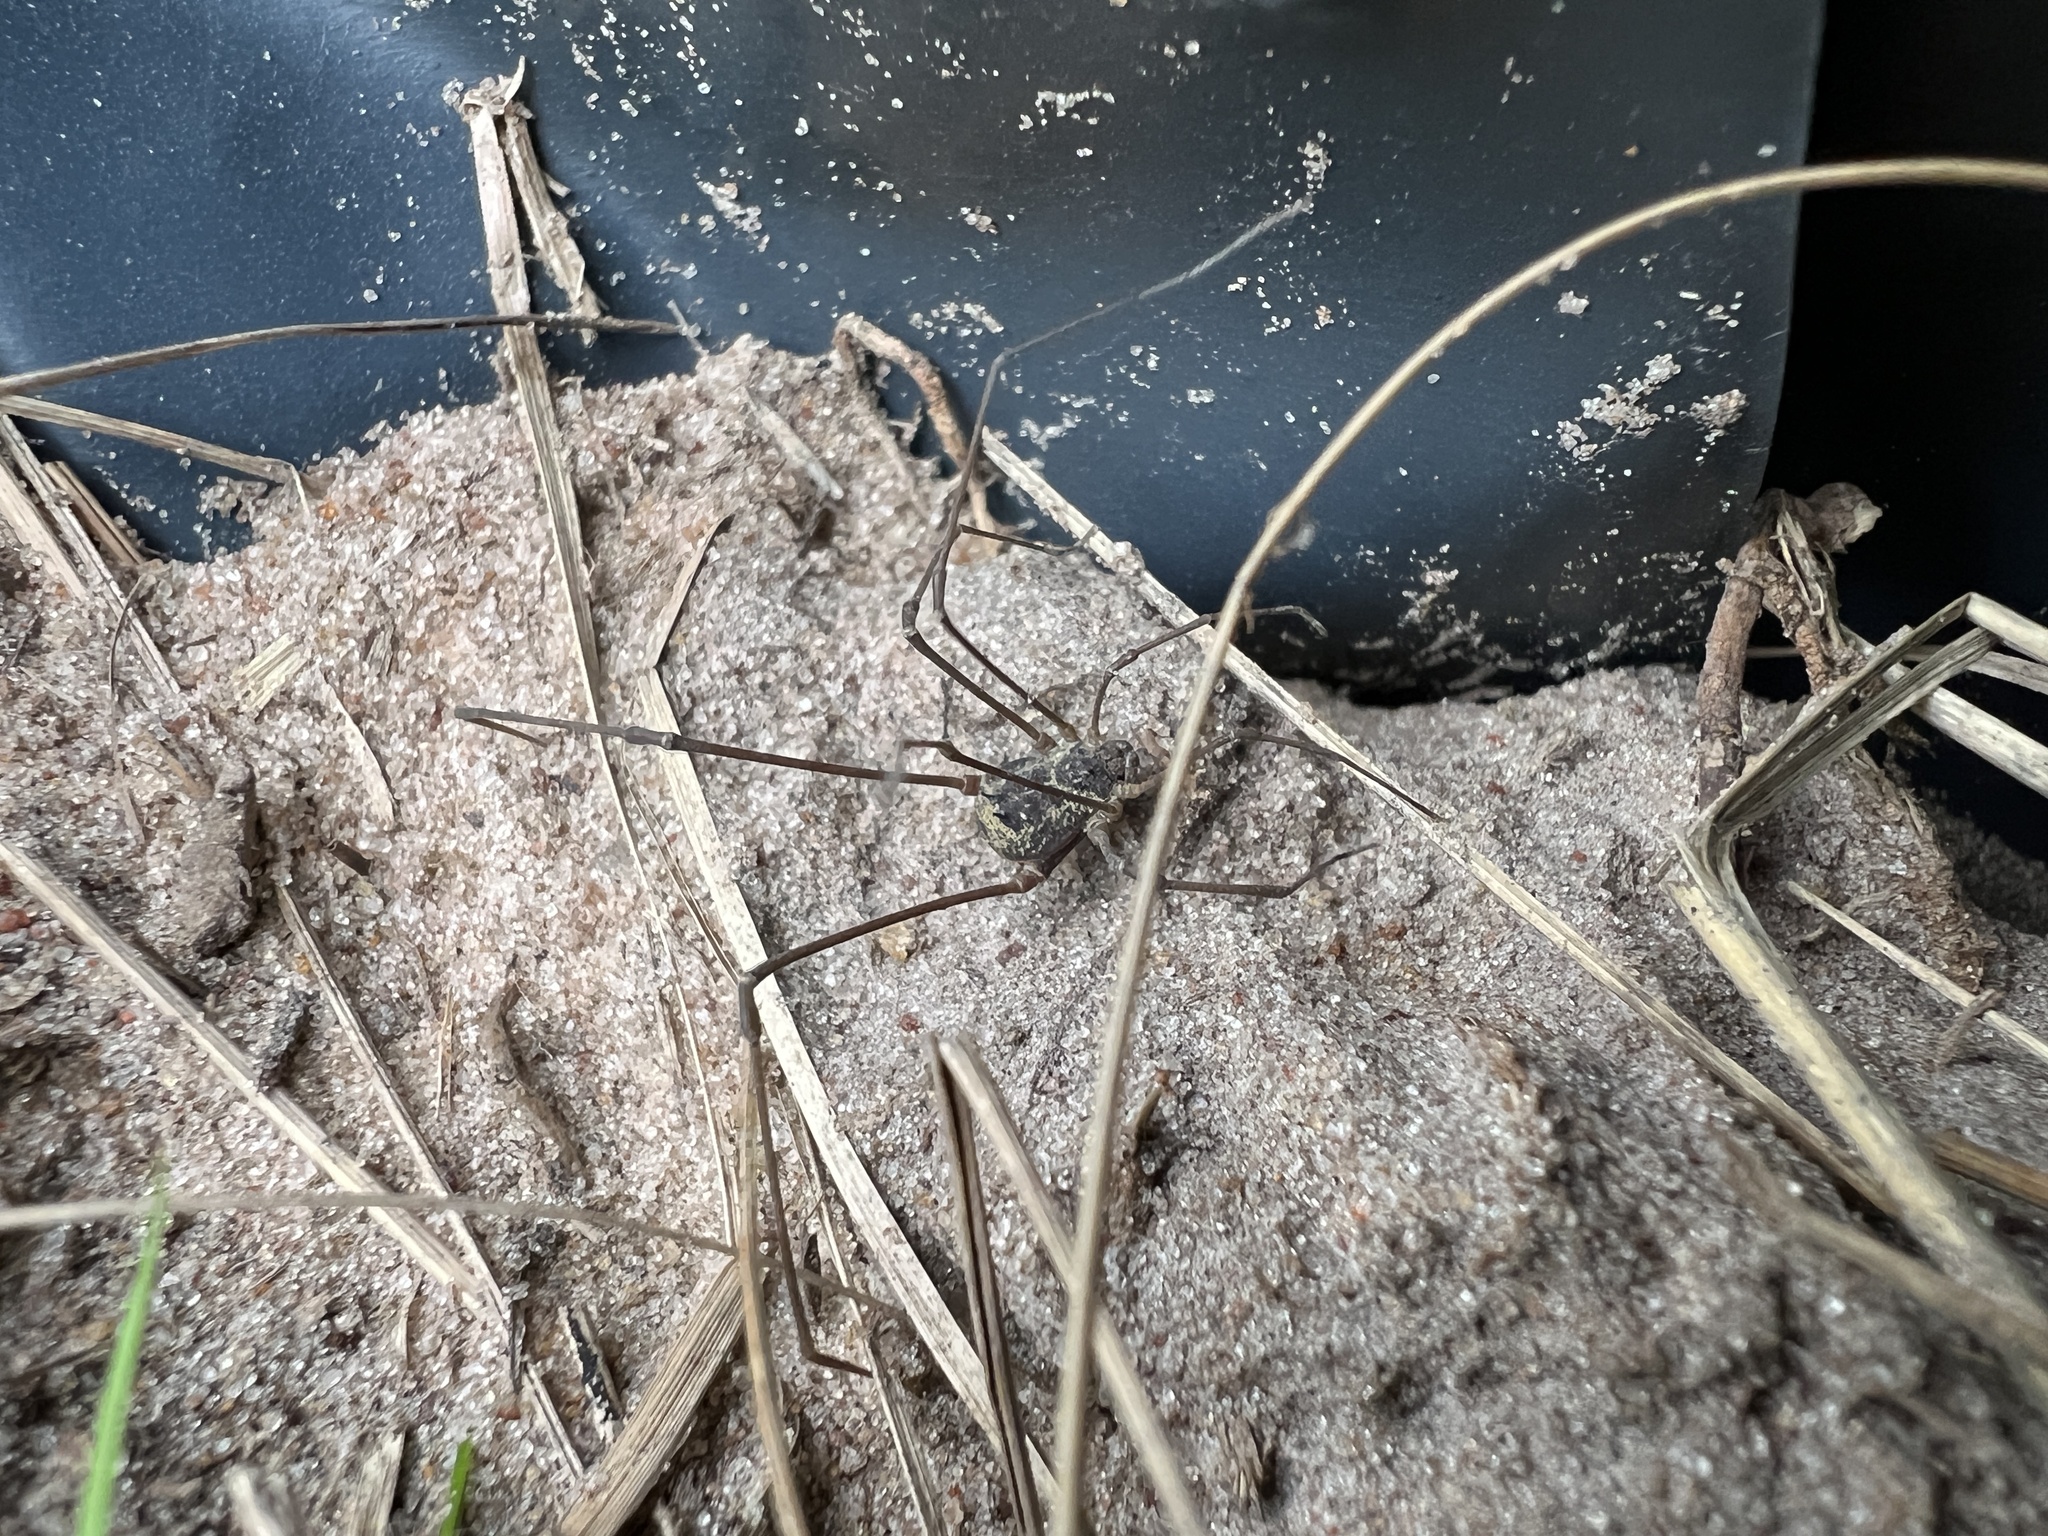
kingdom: Animalia
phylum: Arthropoda
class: Arachnida
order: Opiliones
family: Cosmetidae
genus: Gryne
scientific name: Gryne orensis
